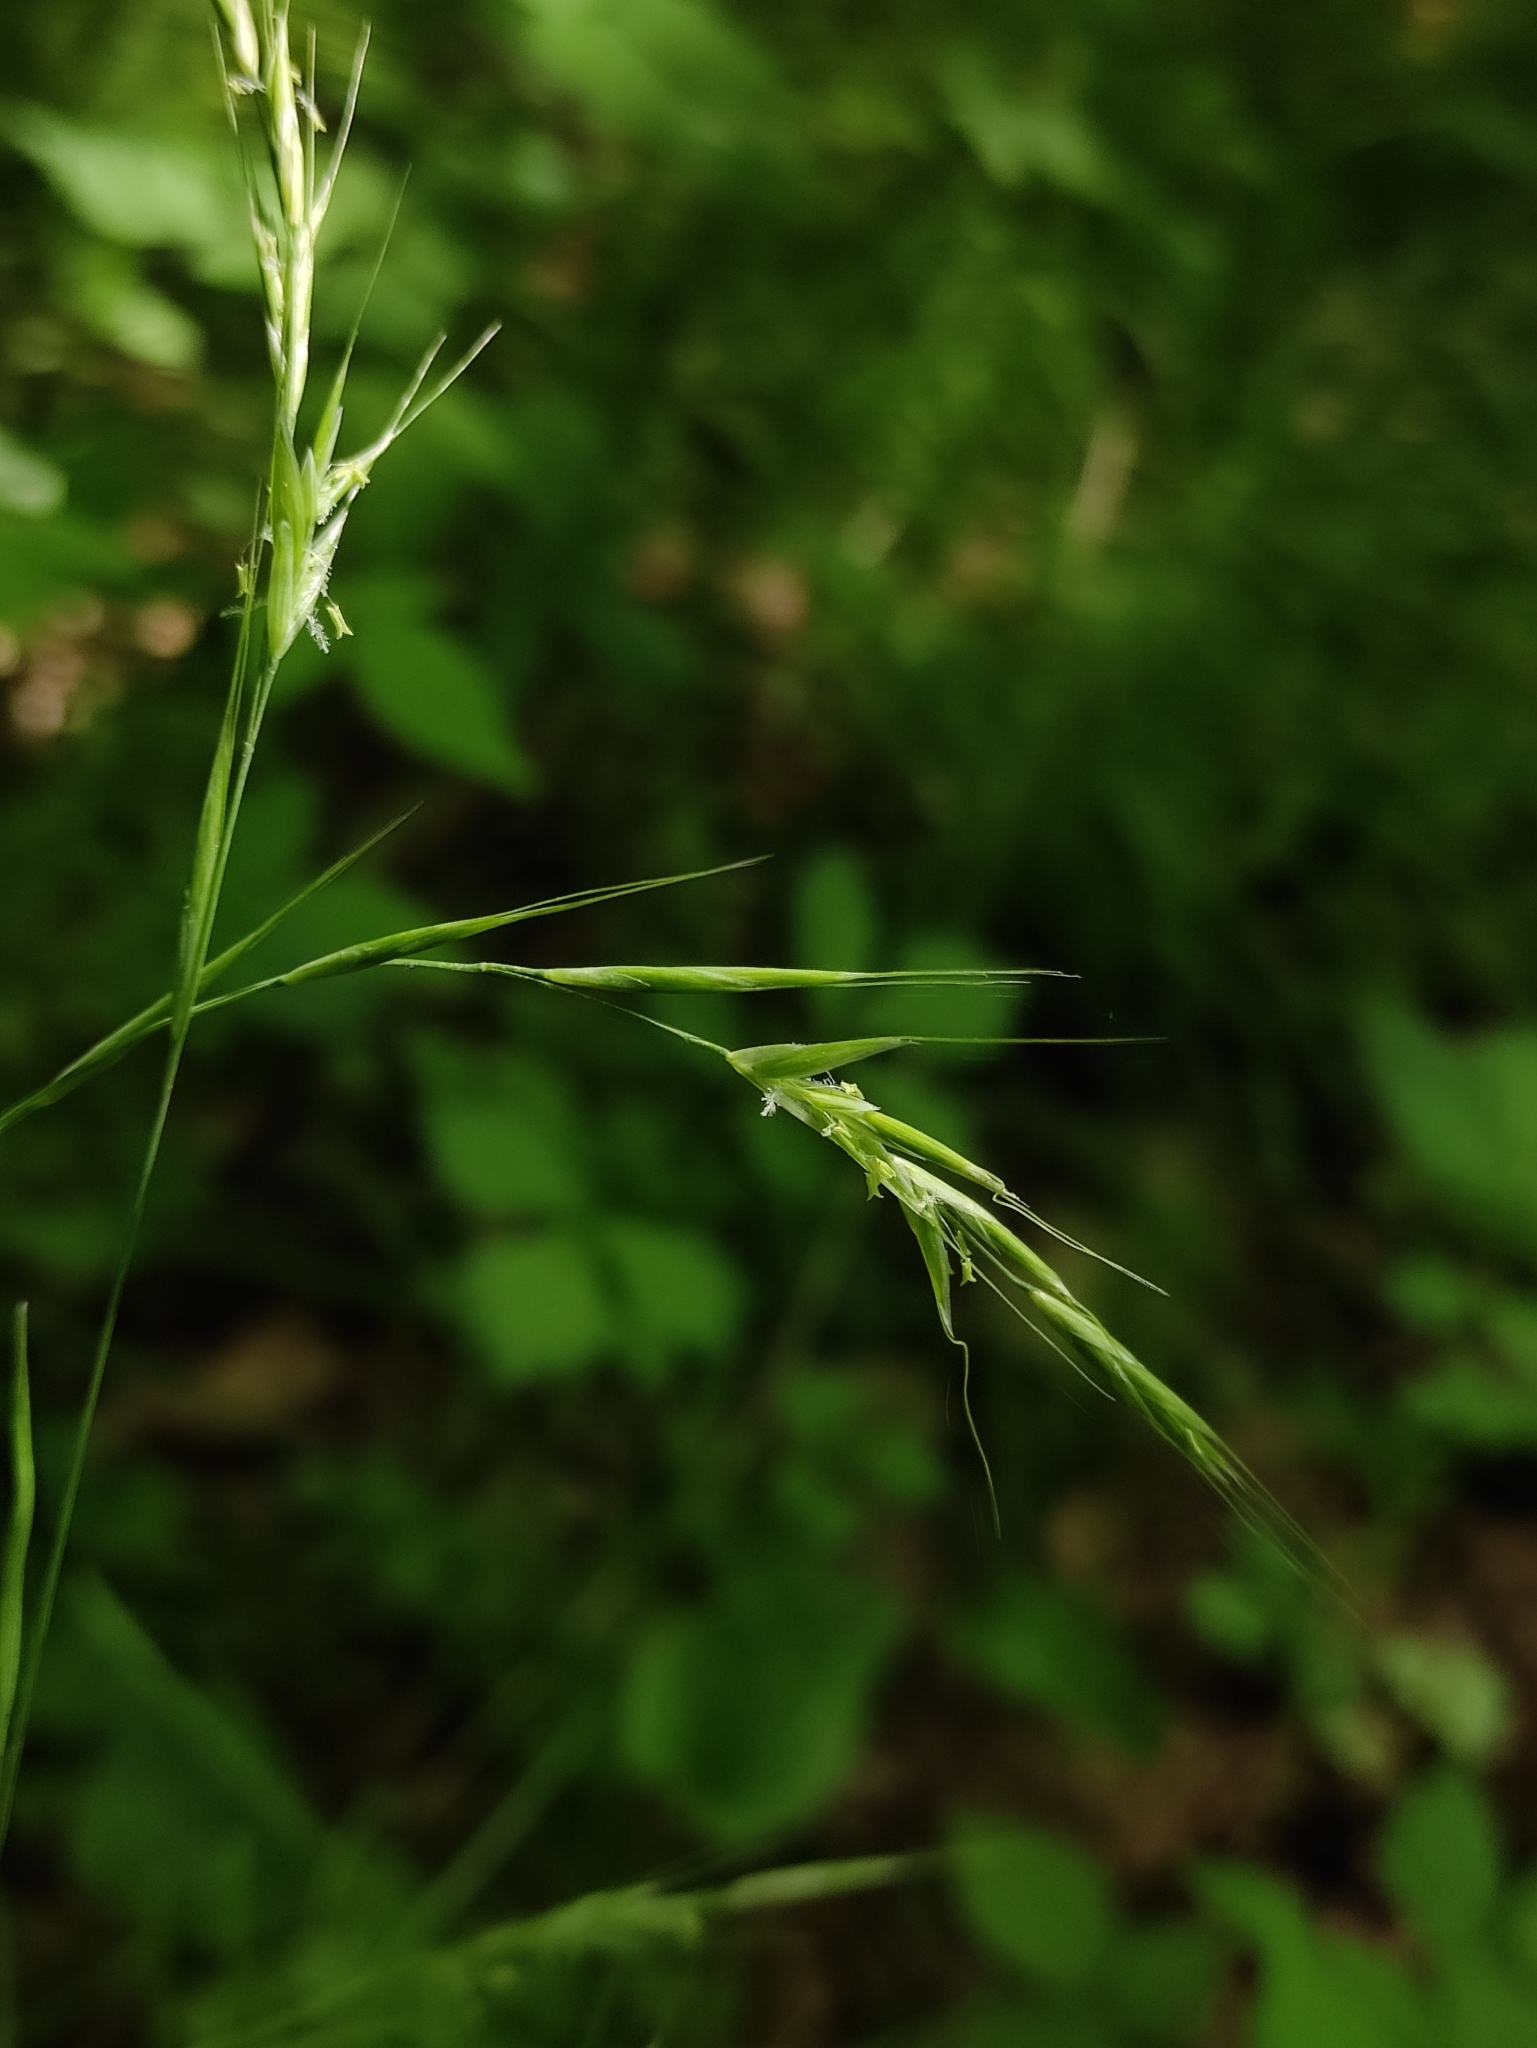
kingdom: Plantae
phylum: Tracheophyta
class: Liliopsida
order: Poales
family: Poaceae
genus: Schizachne
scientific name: Schizachne purpurascens
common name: False melic
